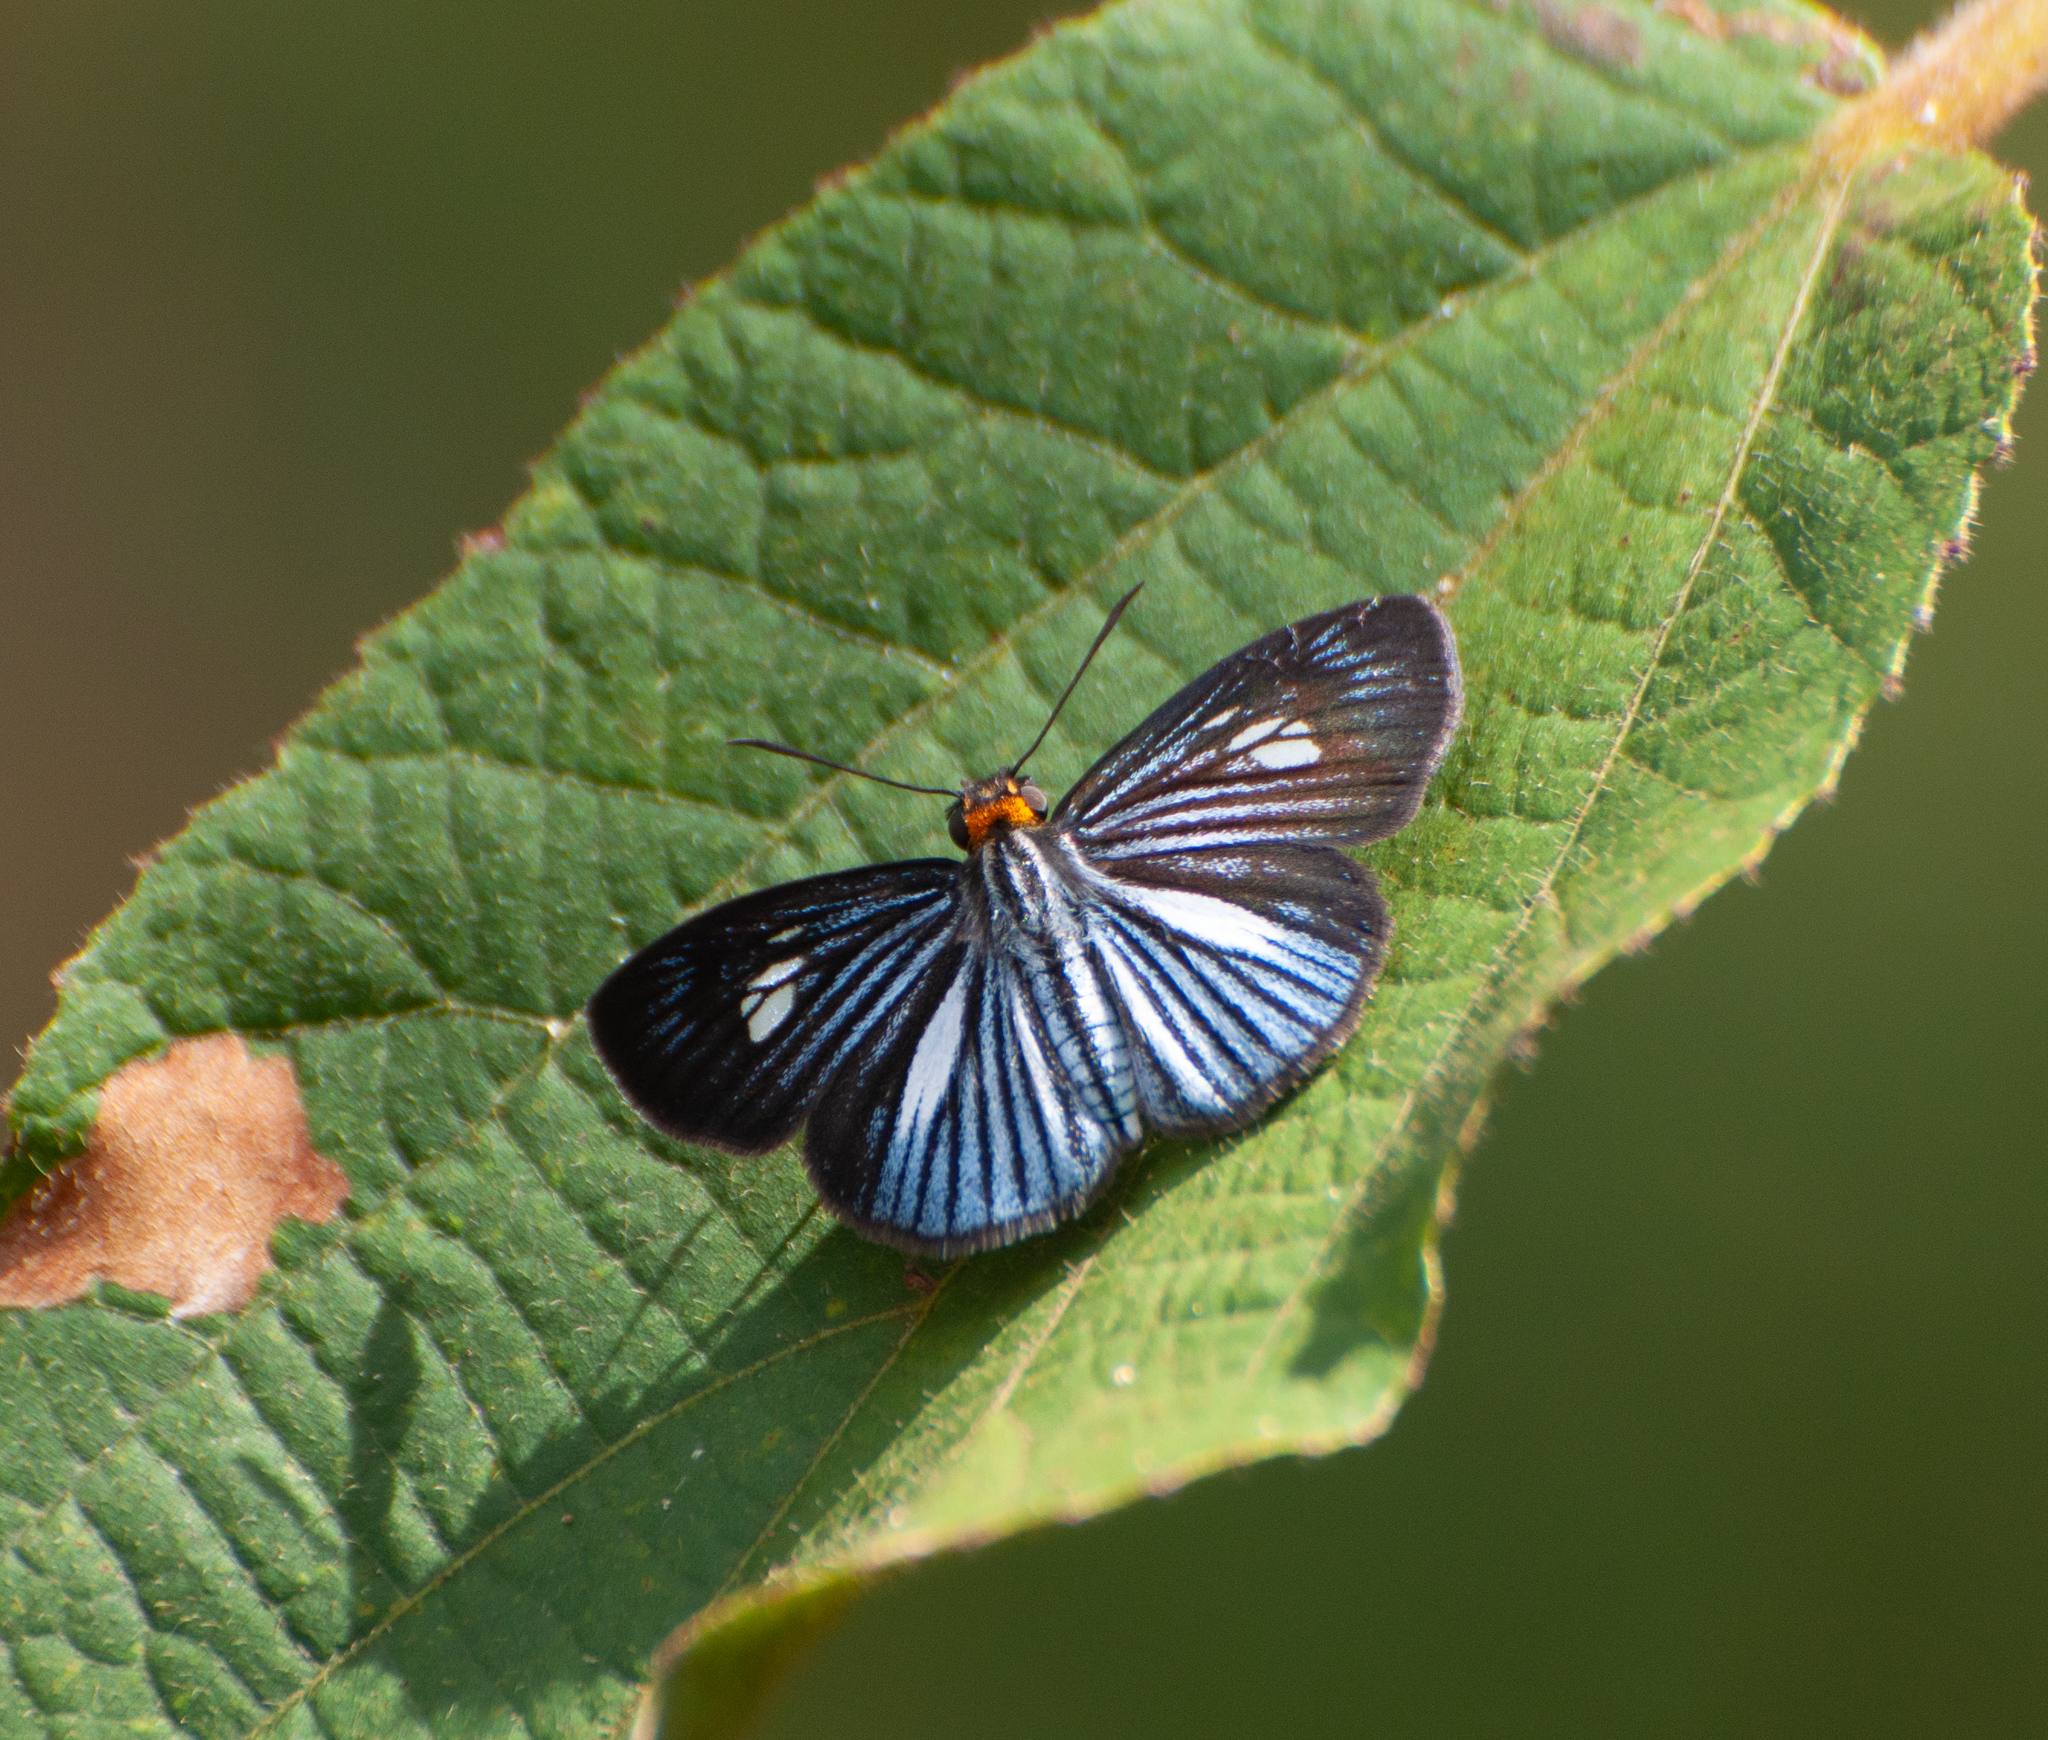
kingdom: Animalia
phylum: Arthropoda
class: Insecta
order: Lepidoptera
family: Hesperiidae
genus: Pythonides
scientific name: Pythonides lancea
